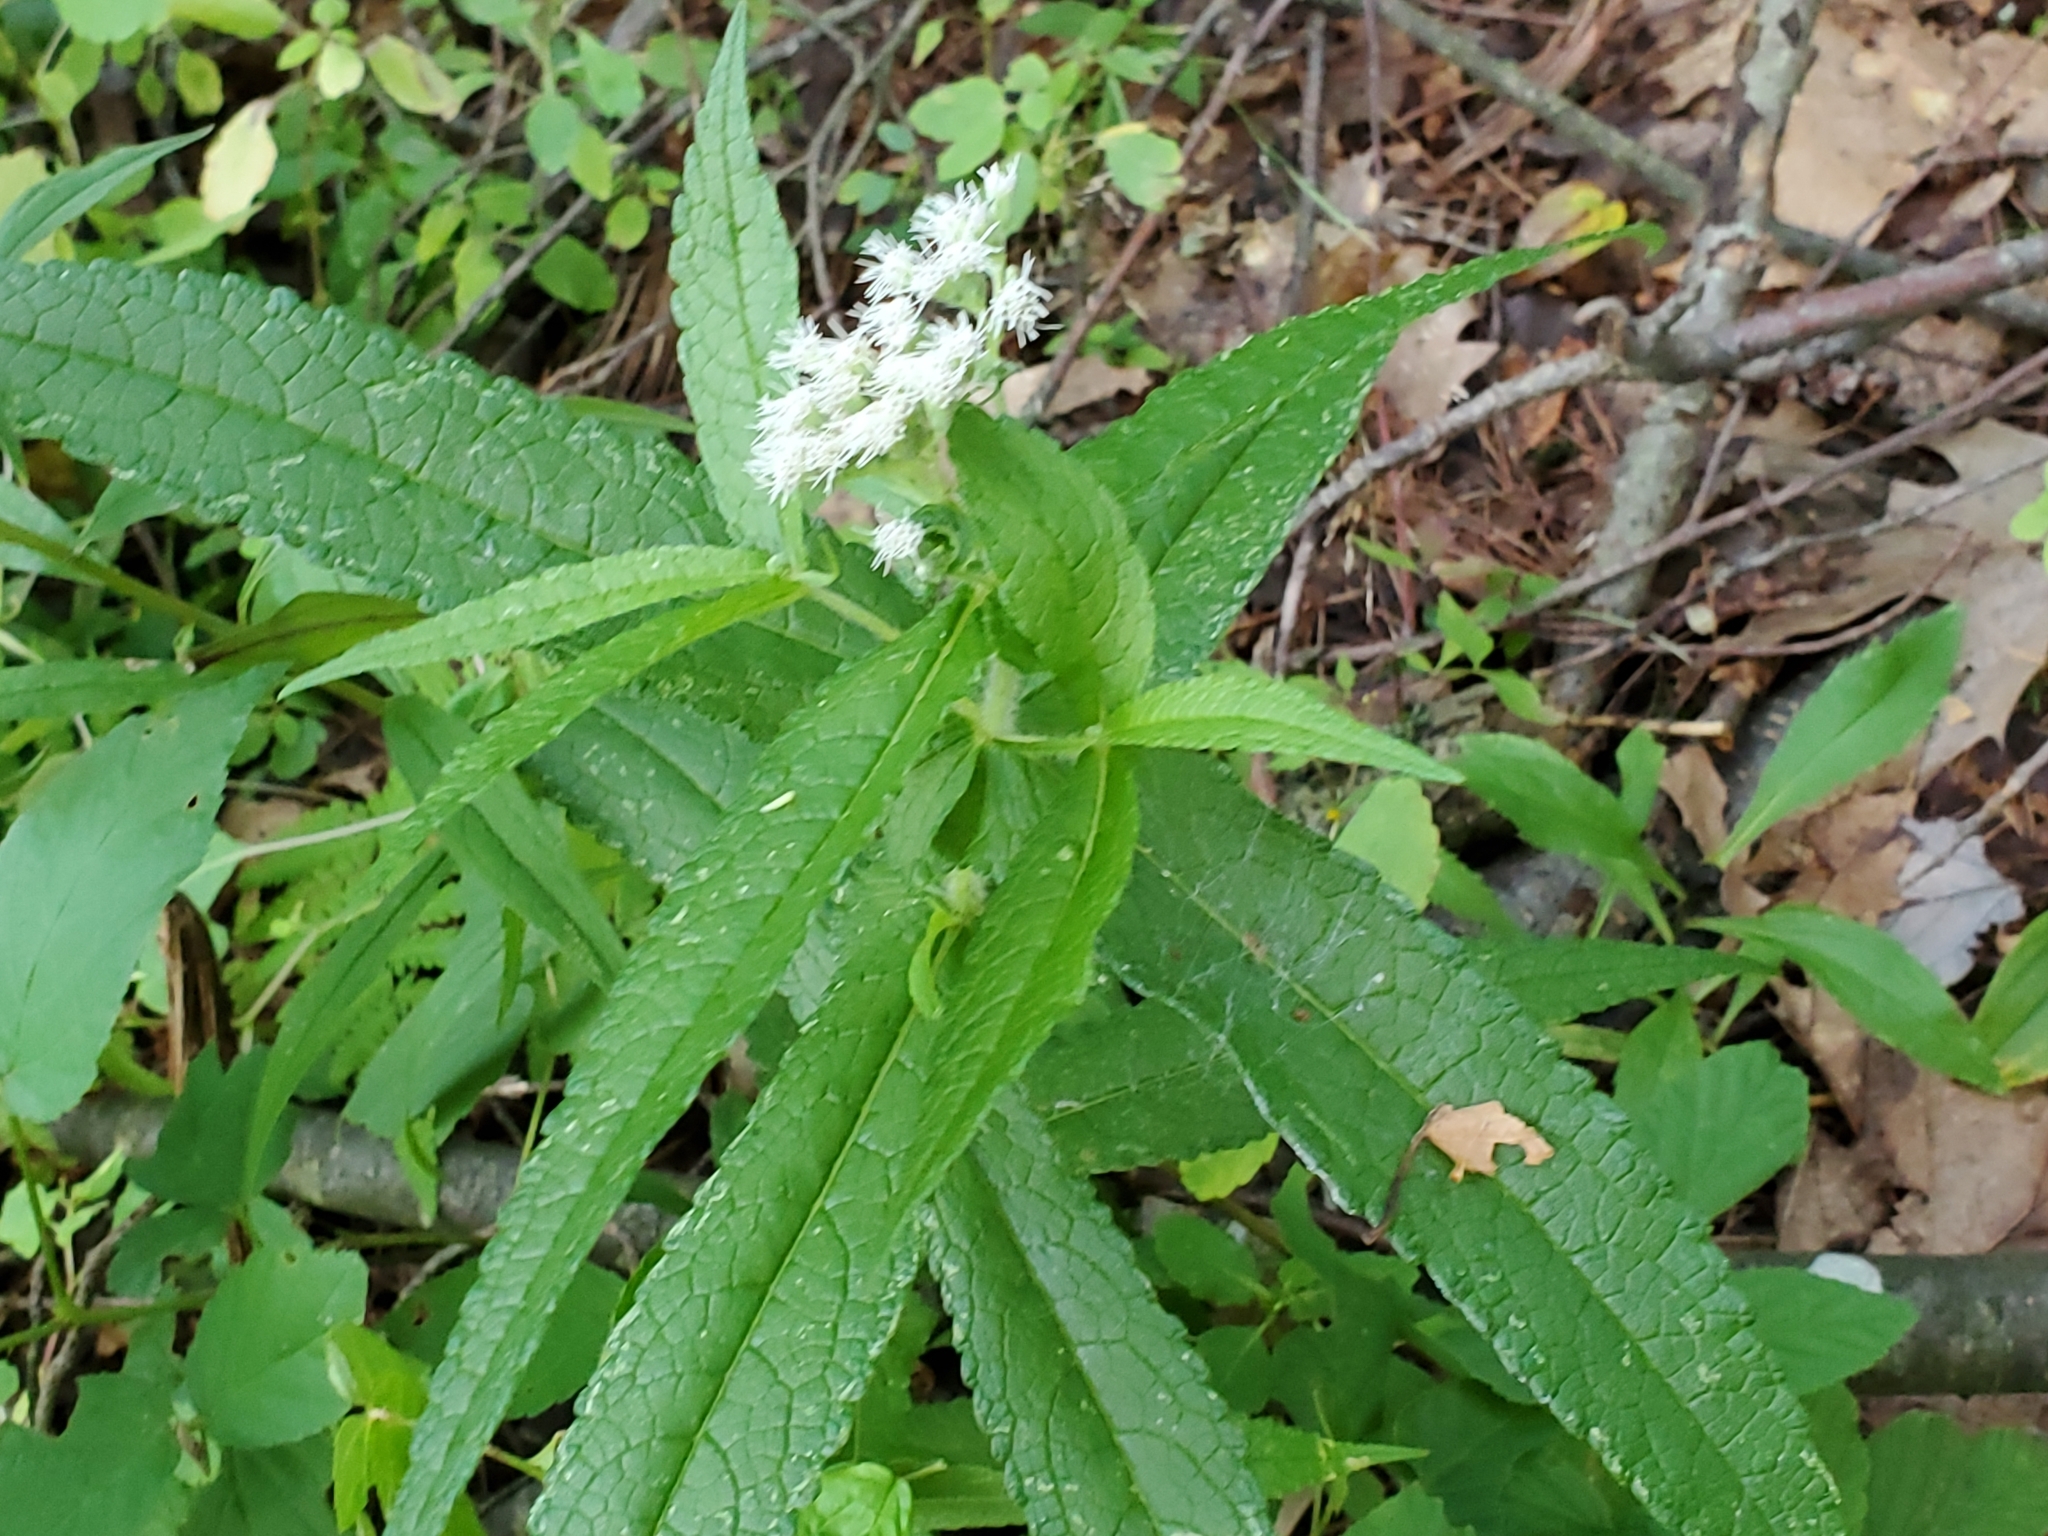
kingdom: Plantae
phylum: Tracheophyta
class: Magnoliopsida
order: Asterales
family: Asteraceae
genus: Eupatorium
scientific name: Eupatorium perfoliatum
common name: Boneset
